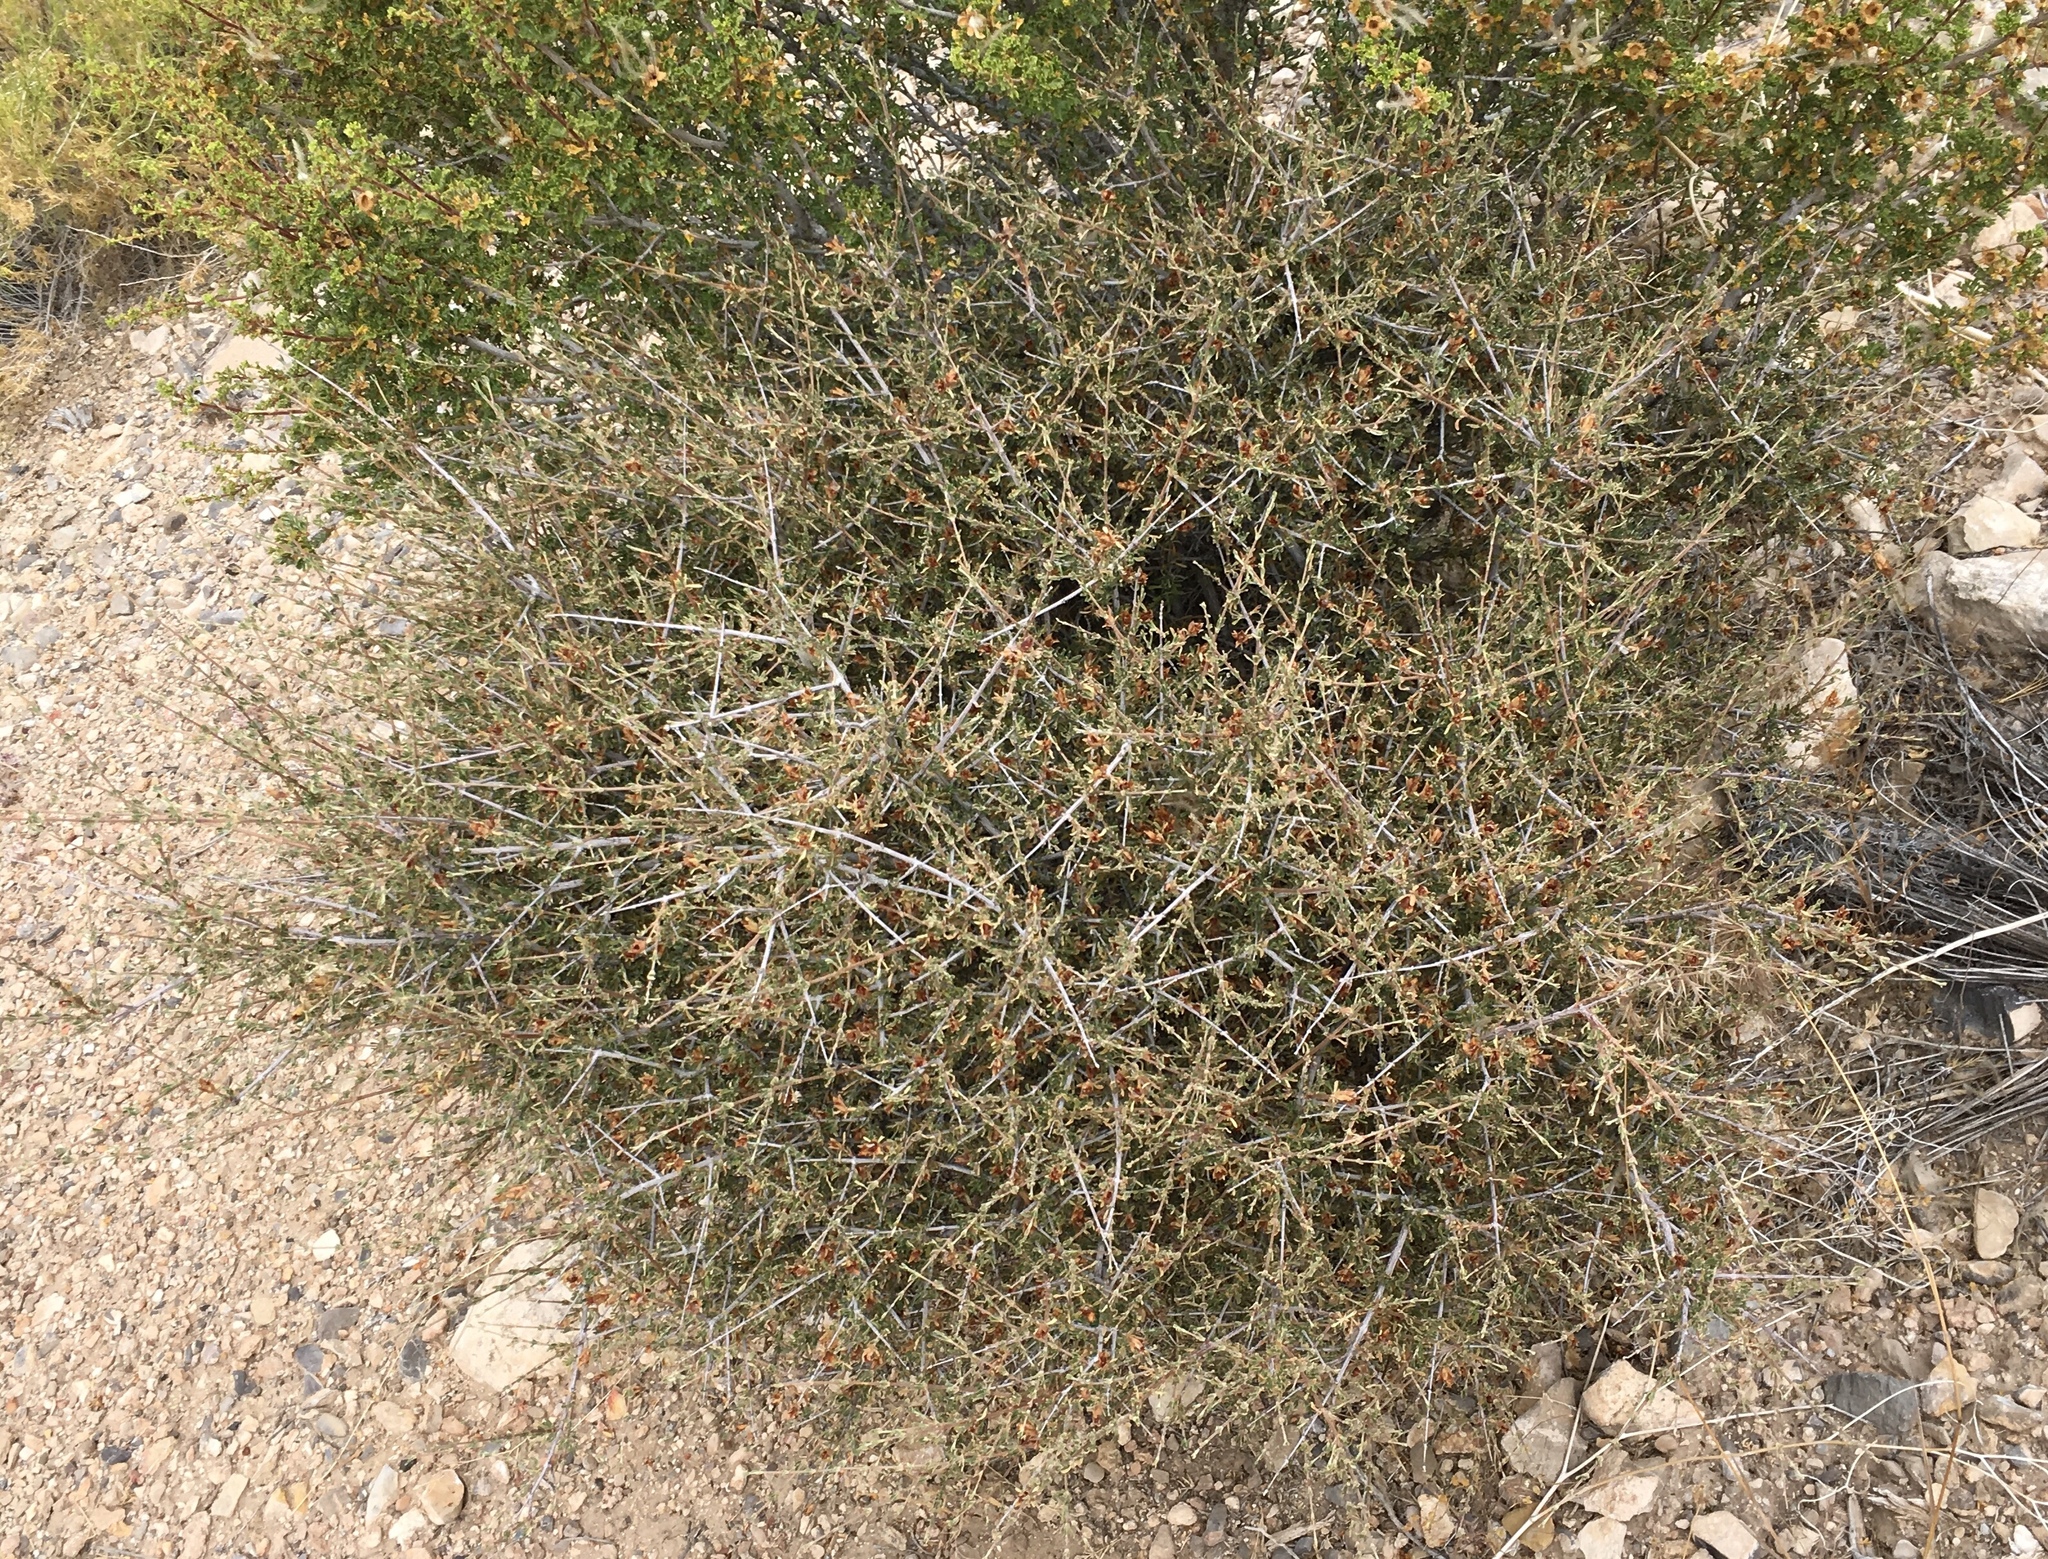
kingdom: Plantae
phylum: Tracheophyta
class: Magnoliopsida
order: Rosales
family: Rosaceae
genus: Coleogyne
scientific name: Coleogyne ramosissima
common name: Blackbrush
